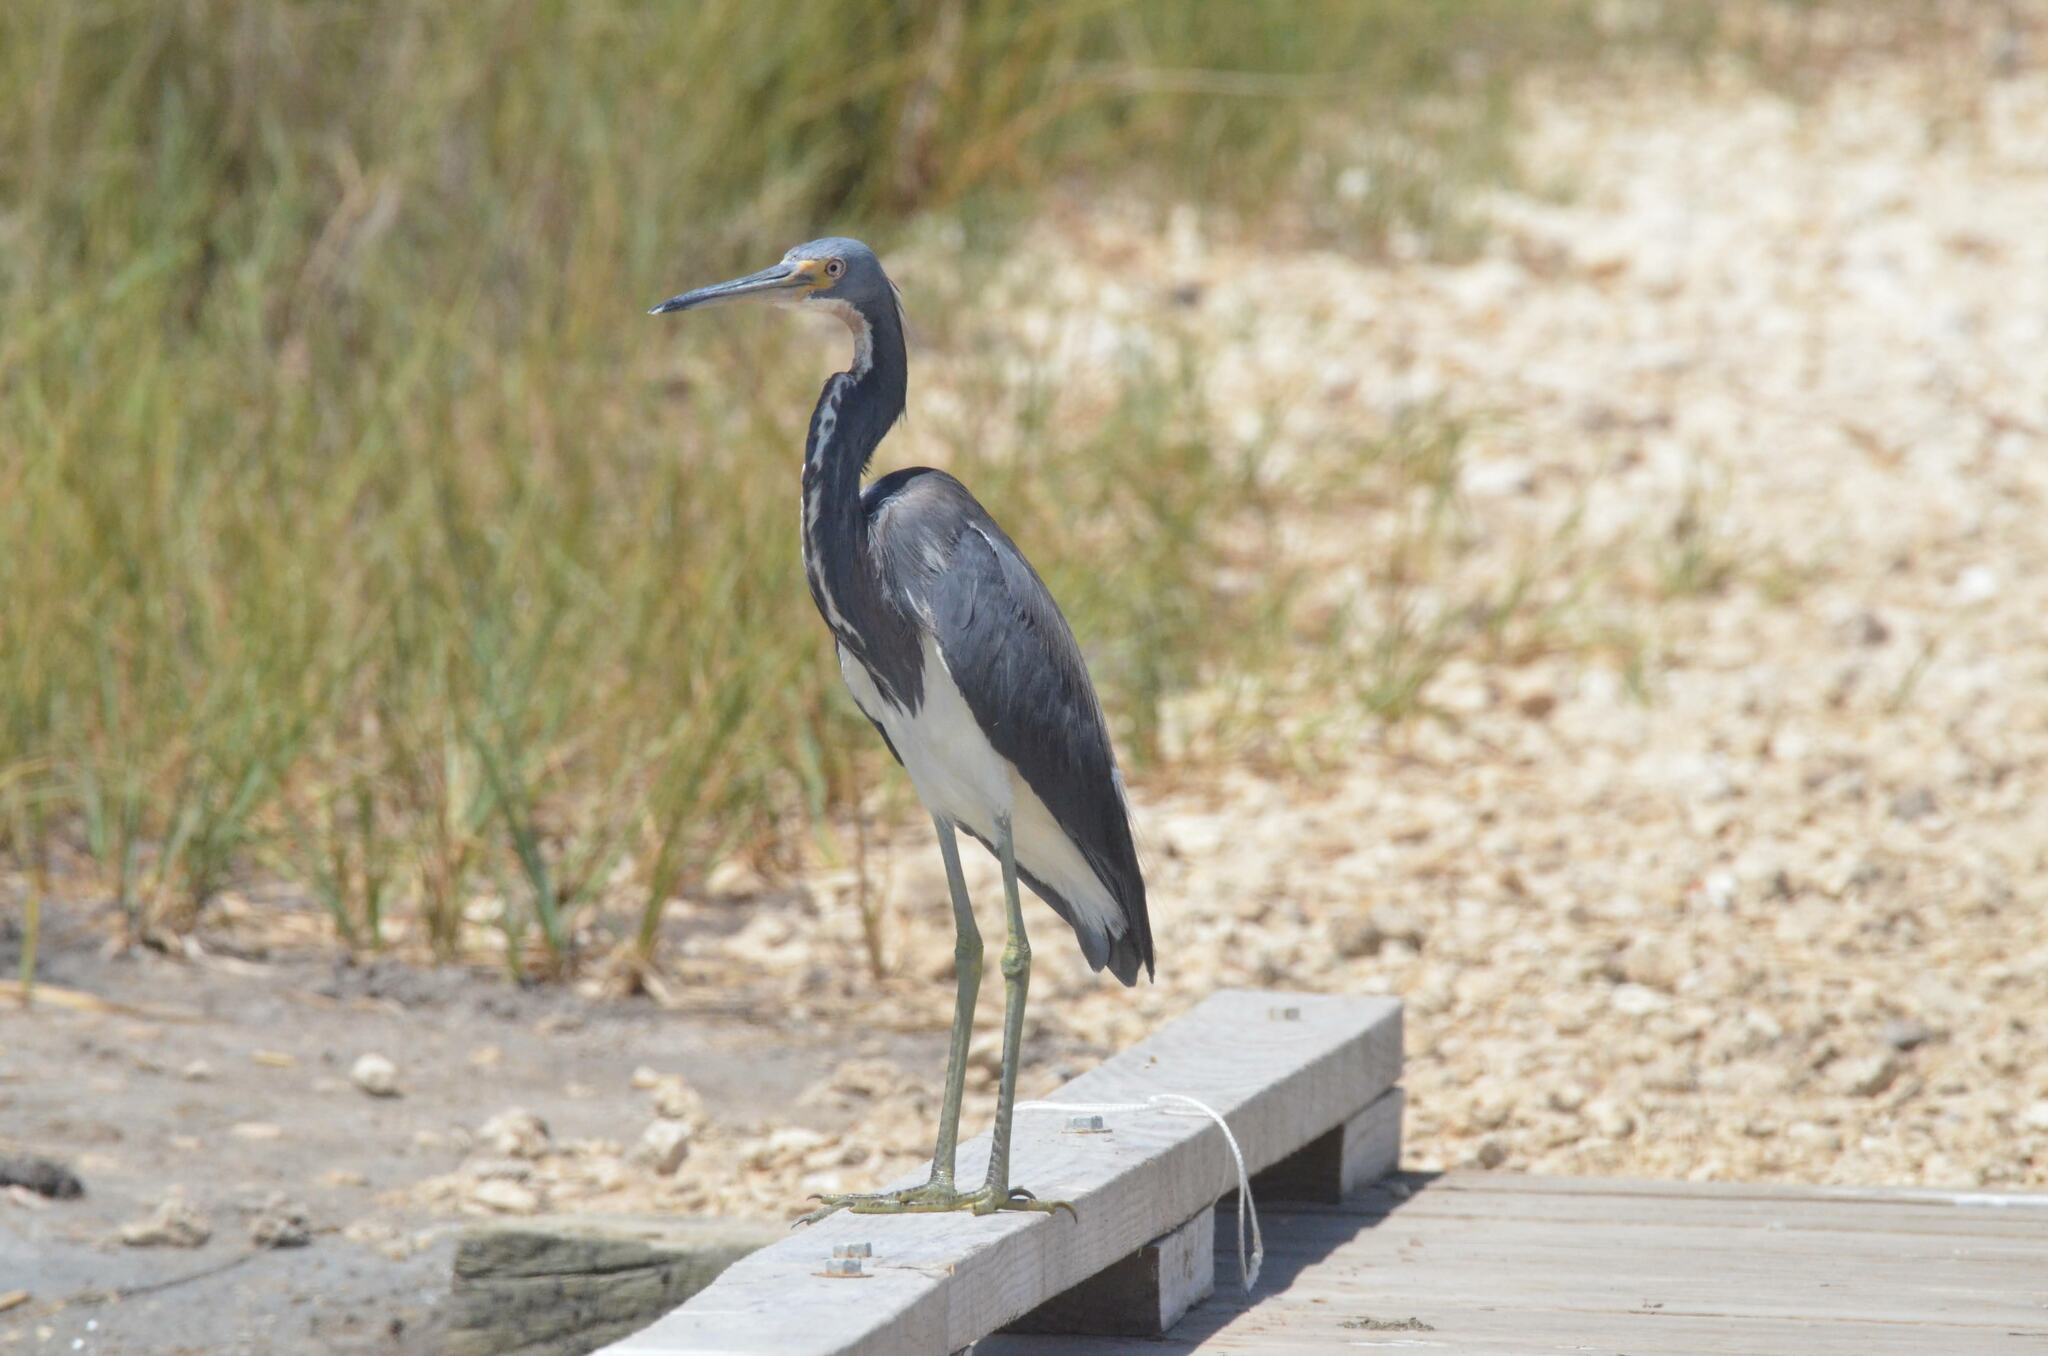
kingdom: Animalia
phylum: Chordata
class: Aves
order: Pelecaniformes
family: Ardeidae
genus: Egretta
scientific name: Egretta tricolor
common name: Tricolored heron
